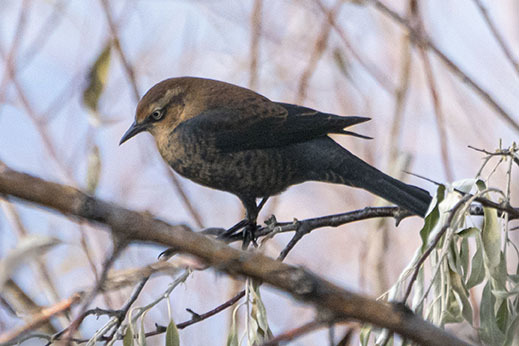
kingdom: Animalia
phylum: Chordata
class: Aves
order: Passeriformes
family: Icteridae
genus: Euphagus
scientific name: Euphagus carolinus
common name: Rusty blackbird
